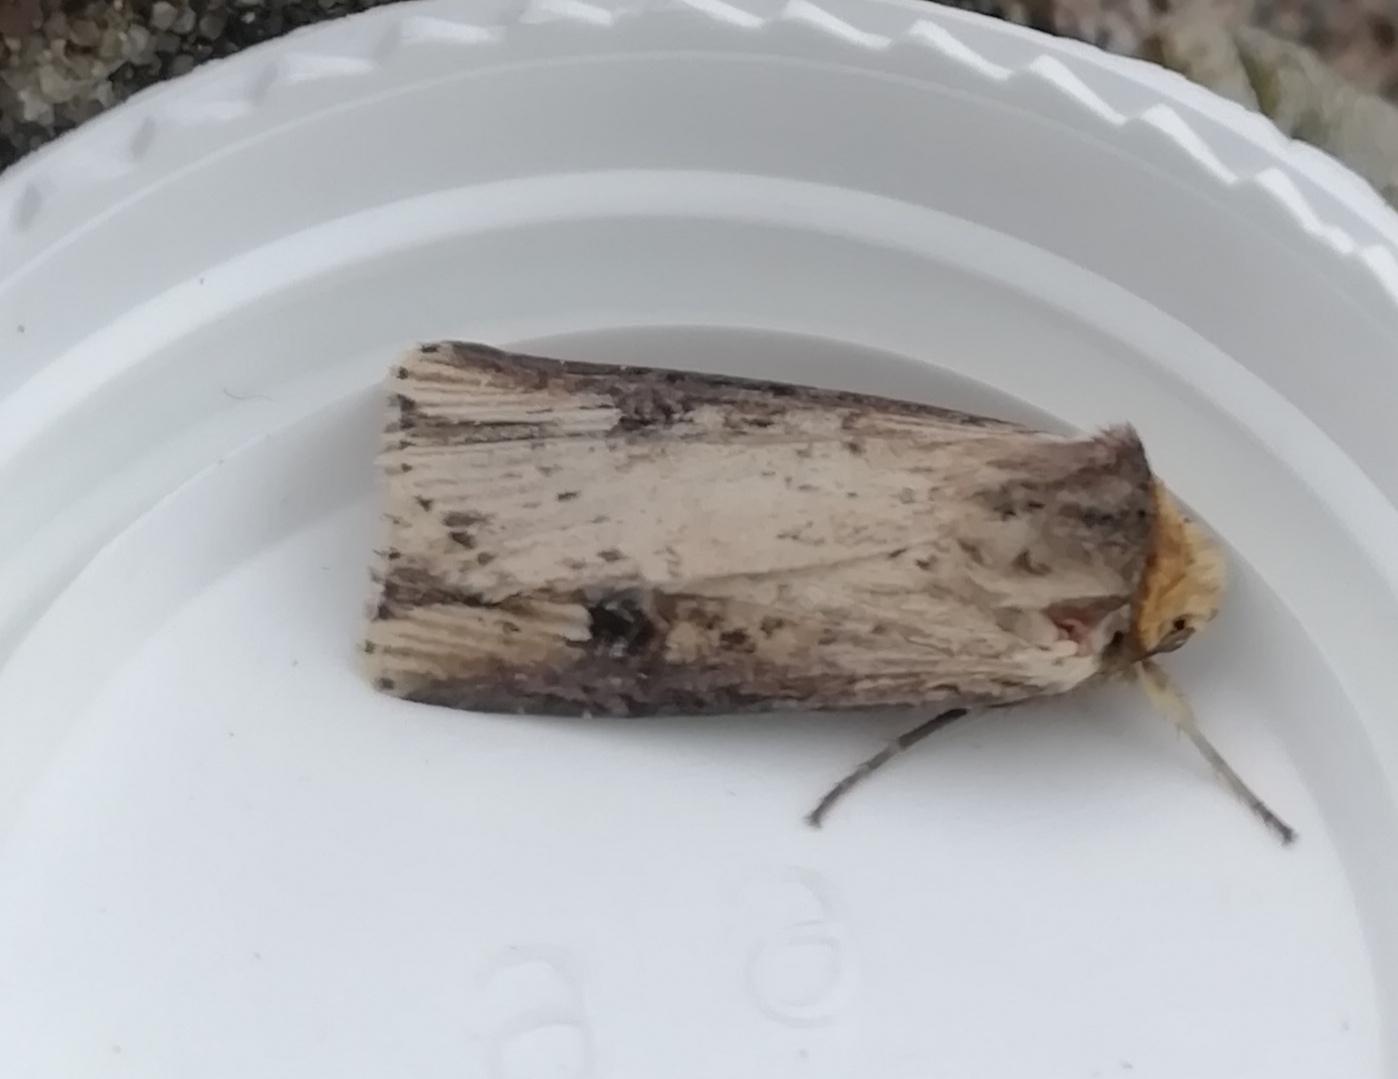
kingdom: Animalia
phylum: Arthropoda
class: Insecta
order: Lepidoptera
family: Noctuidae
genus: Axylia
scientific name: Axylia putris
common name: Flame
